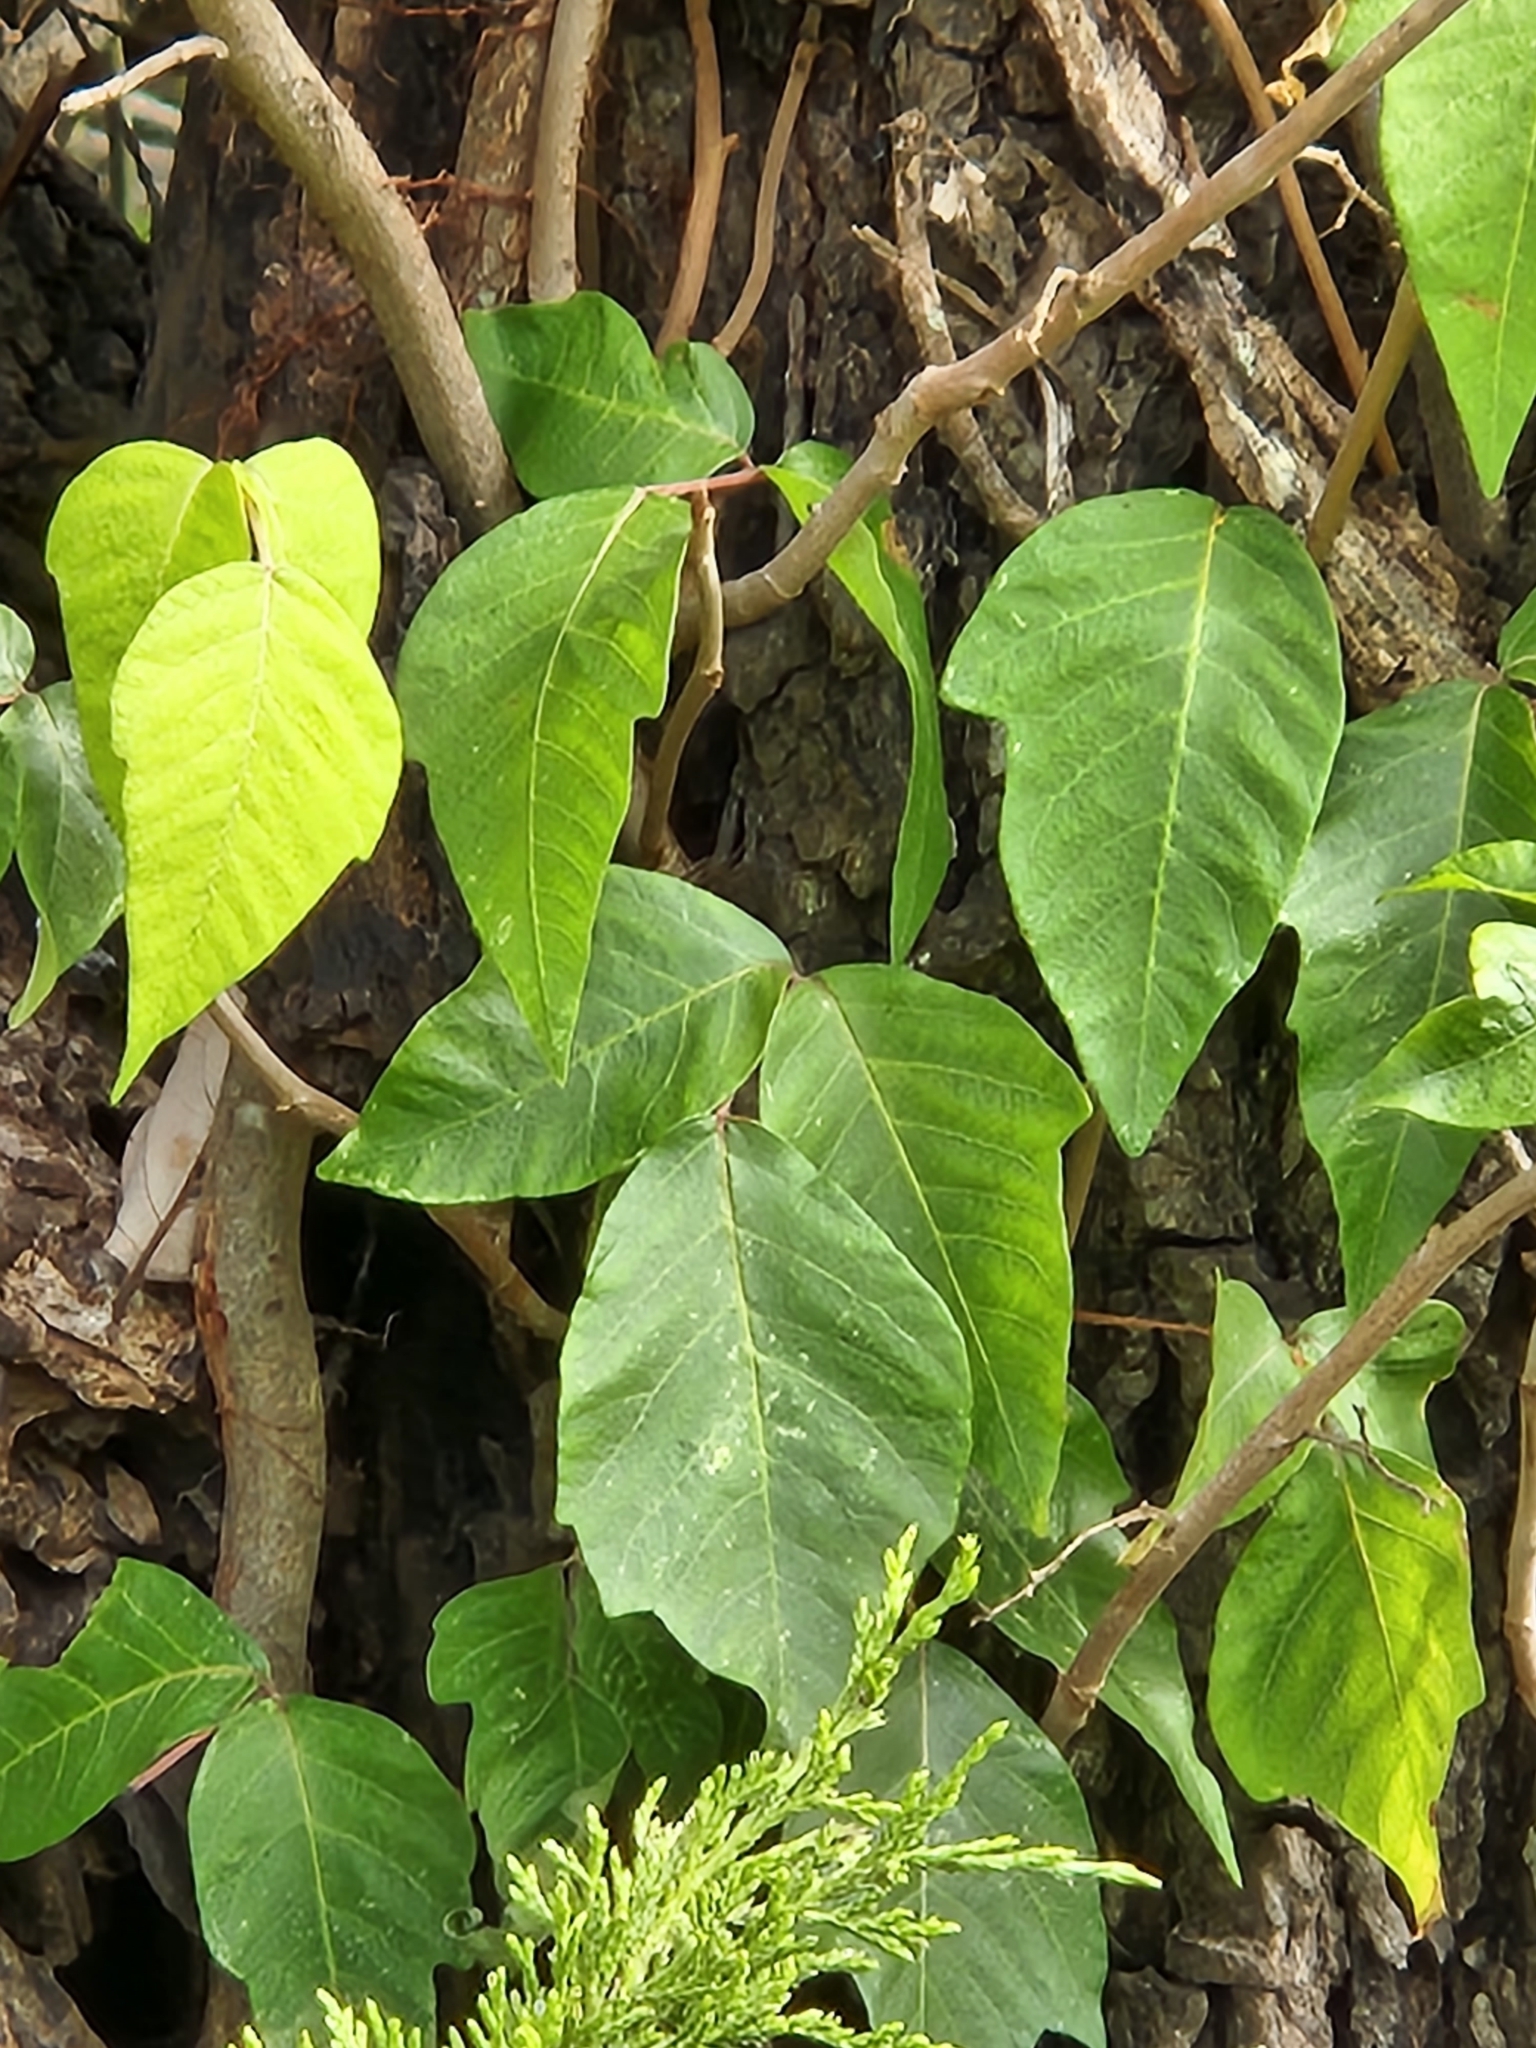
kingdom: Plantae
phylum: Tracheophyta
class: Magnoliopsida
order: Sapindales
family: Anacardiaceae
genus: Toxicodendron
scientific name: Toxicodendron radicans
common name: Poison ivy
